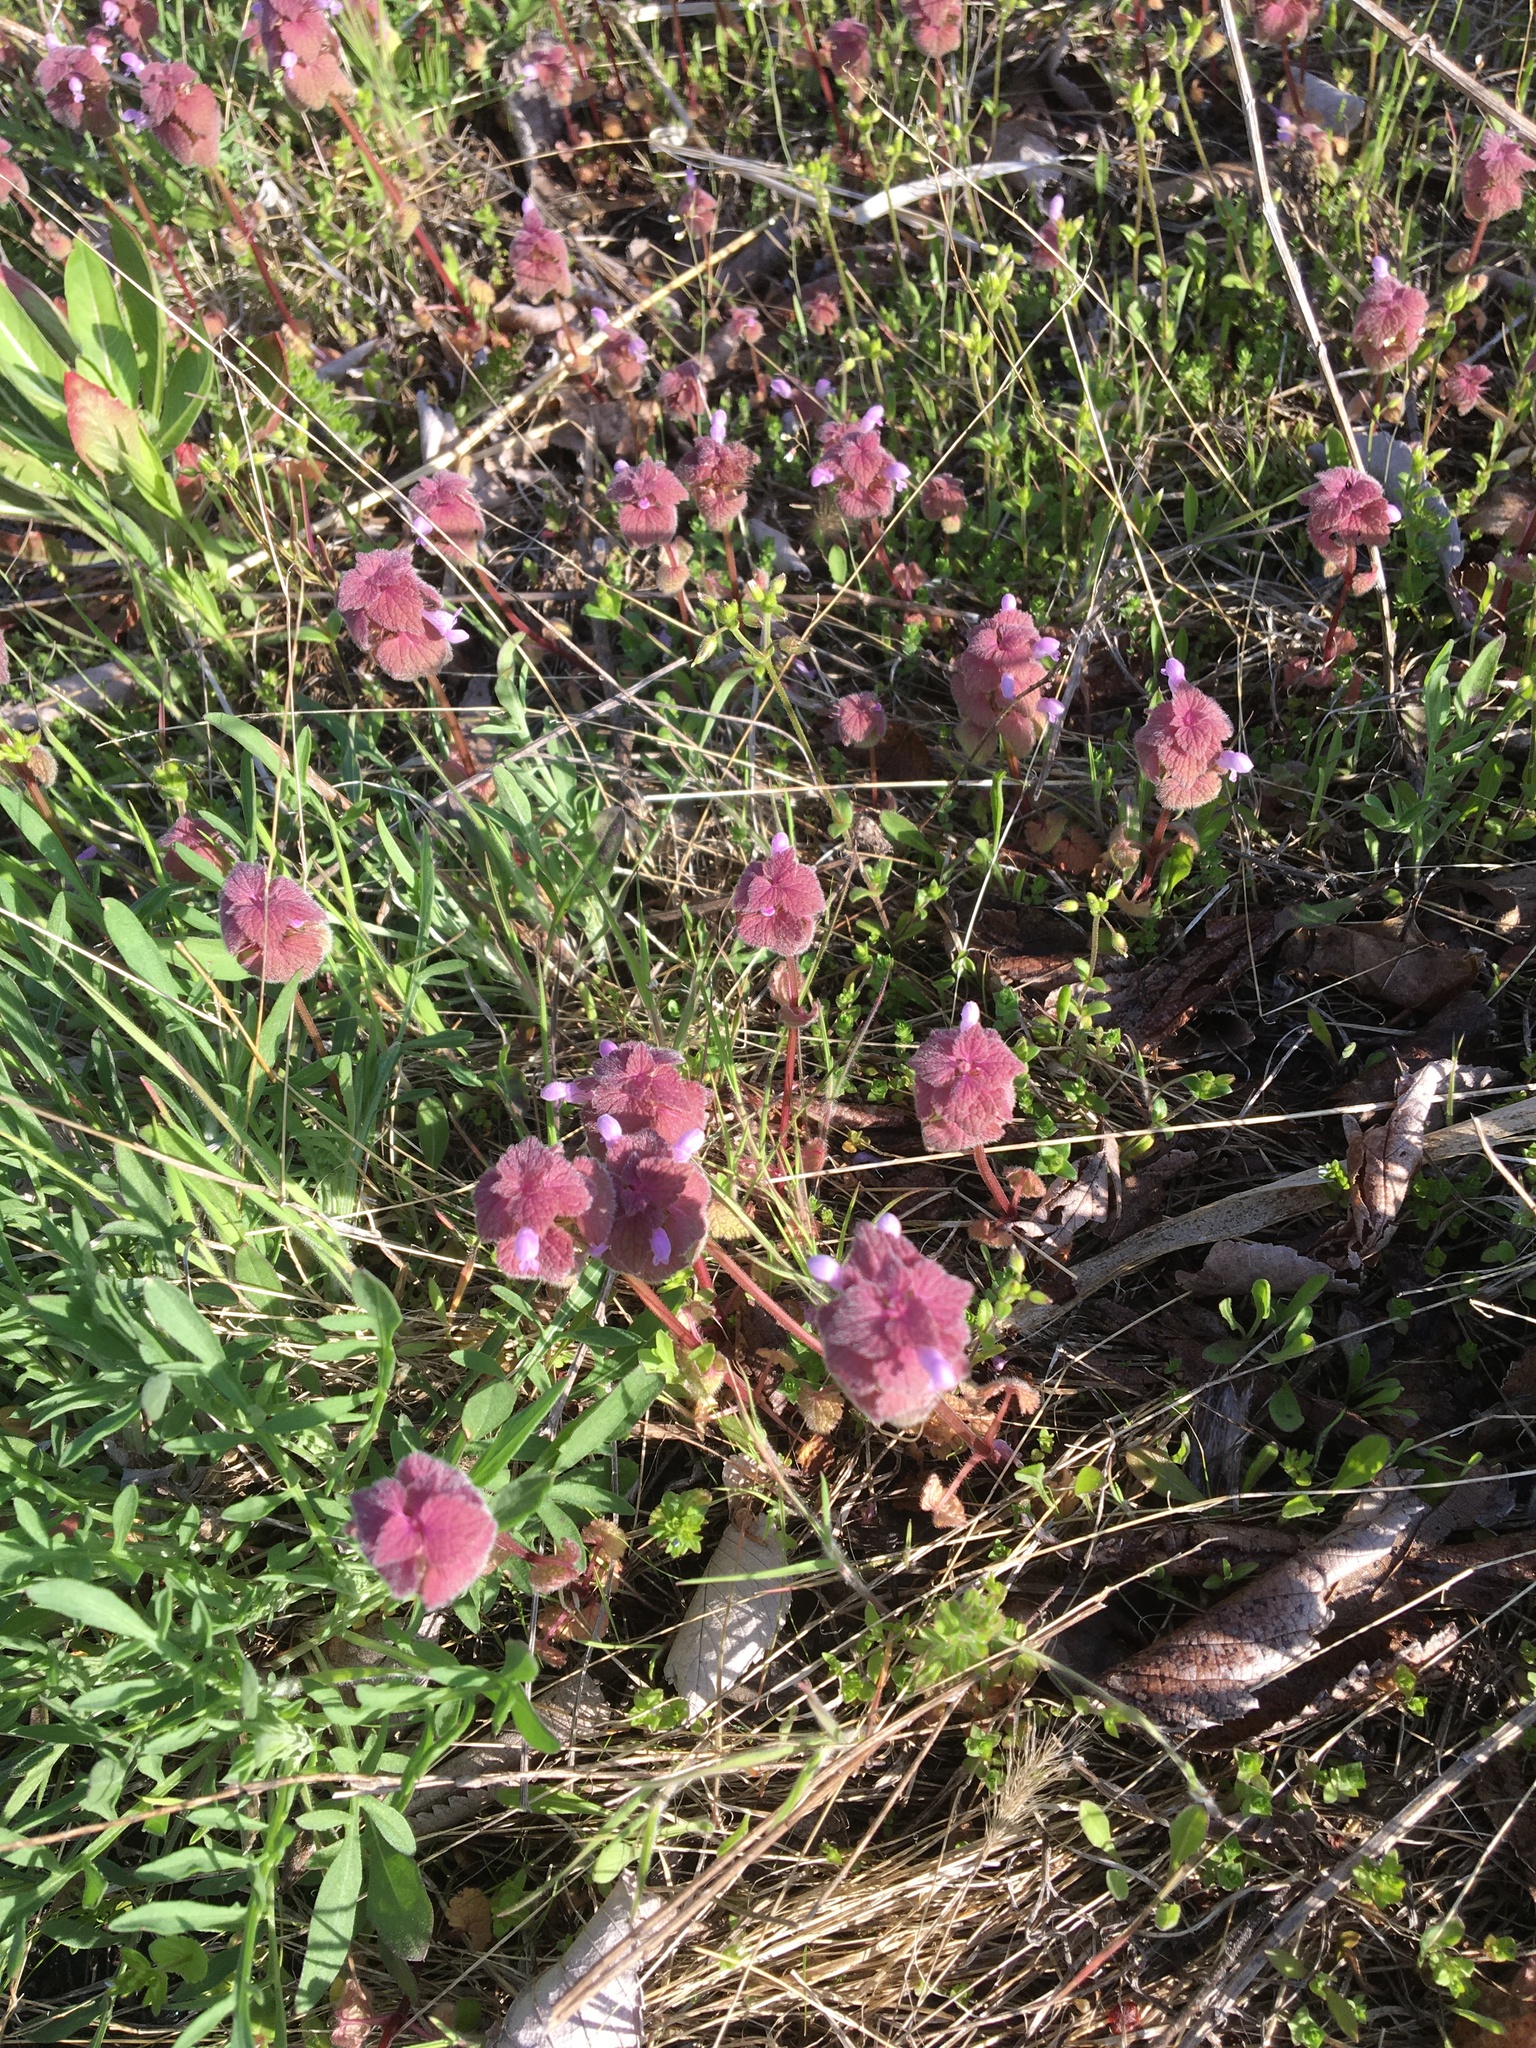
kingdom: Plantae
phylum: Tracheophyta
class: Magnoliopsida
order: Lamiales
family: Lamiaceae
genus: Lamium
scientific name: Lamium purpureum
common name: Red dead-nettle
